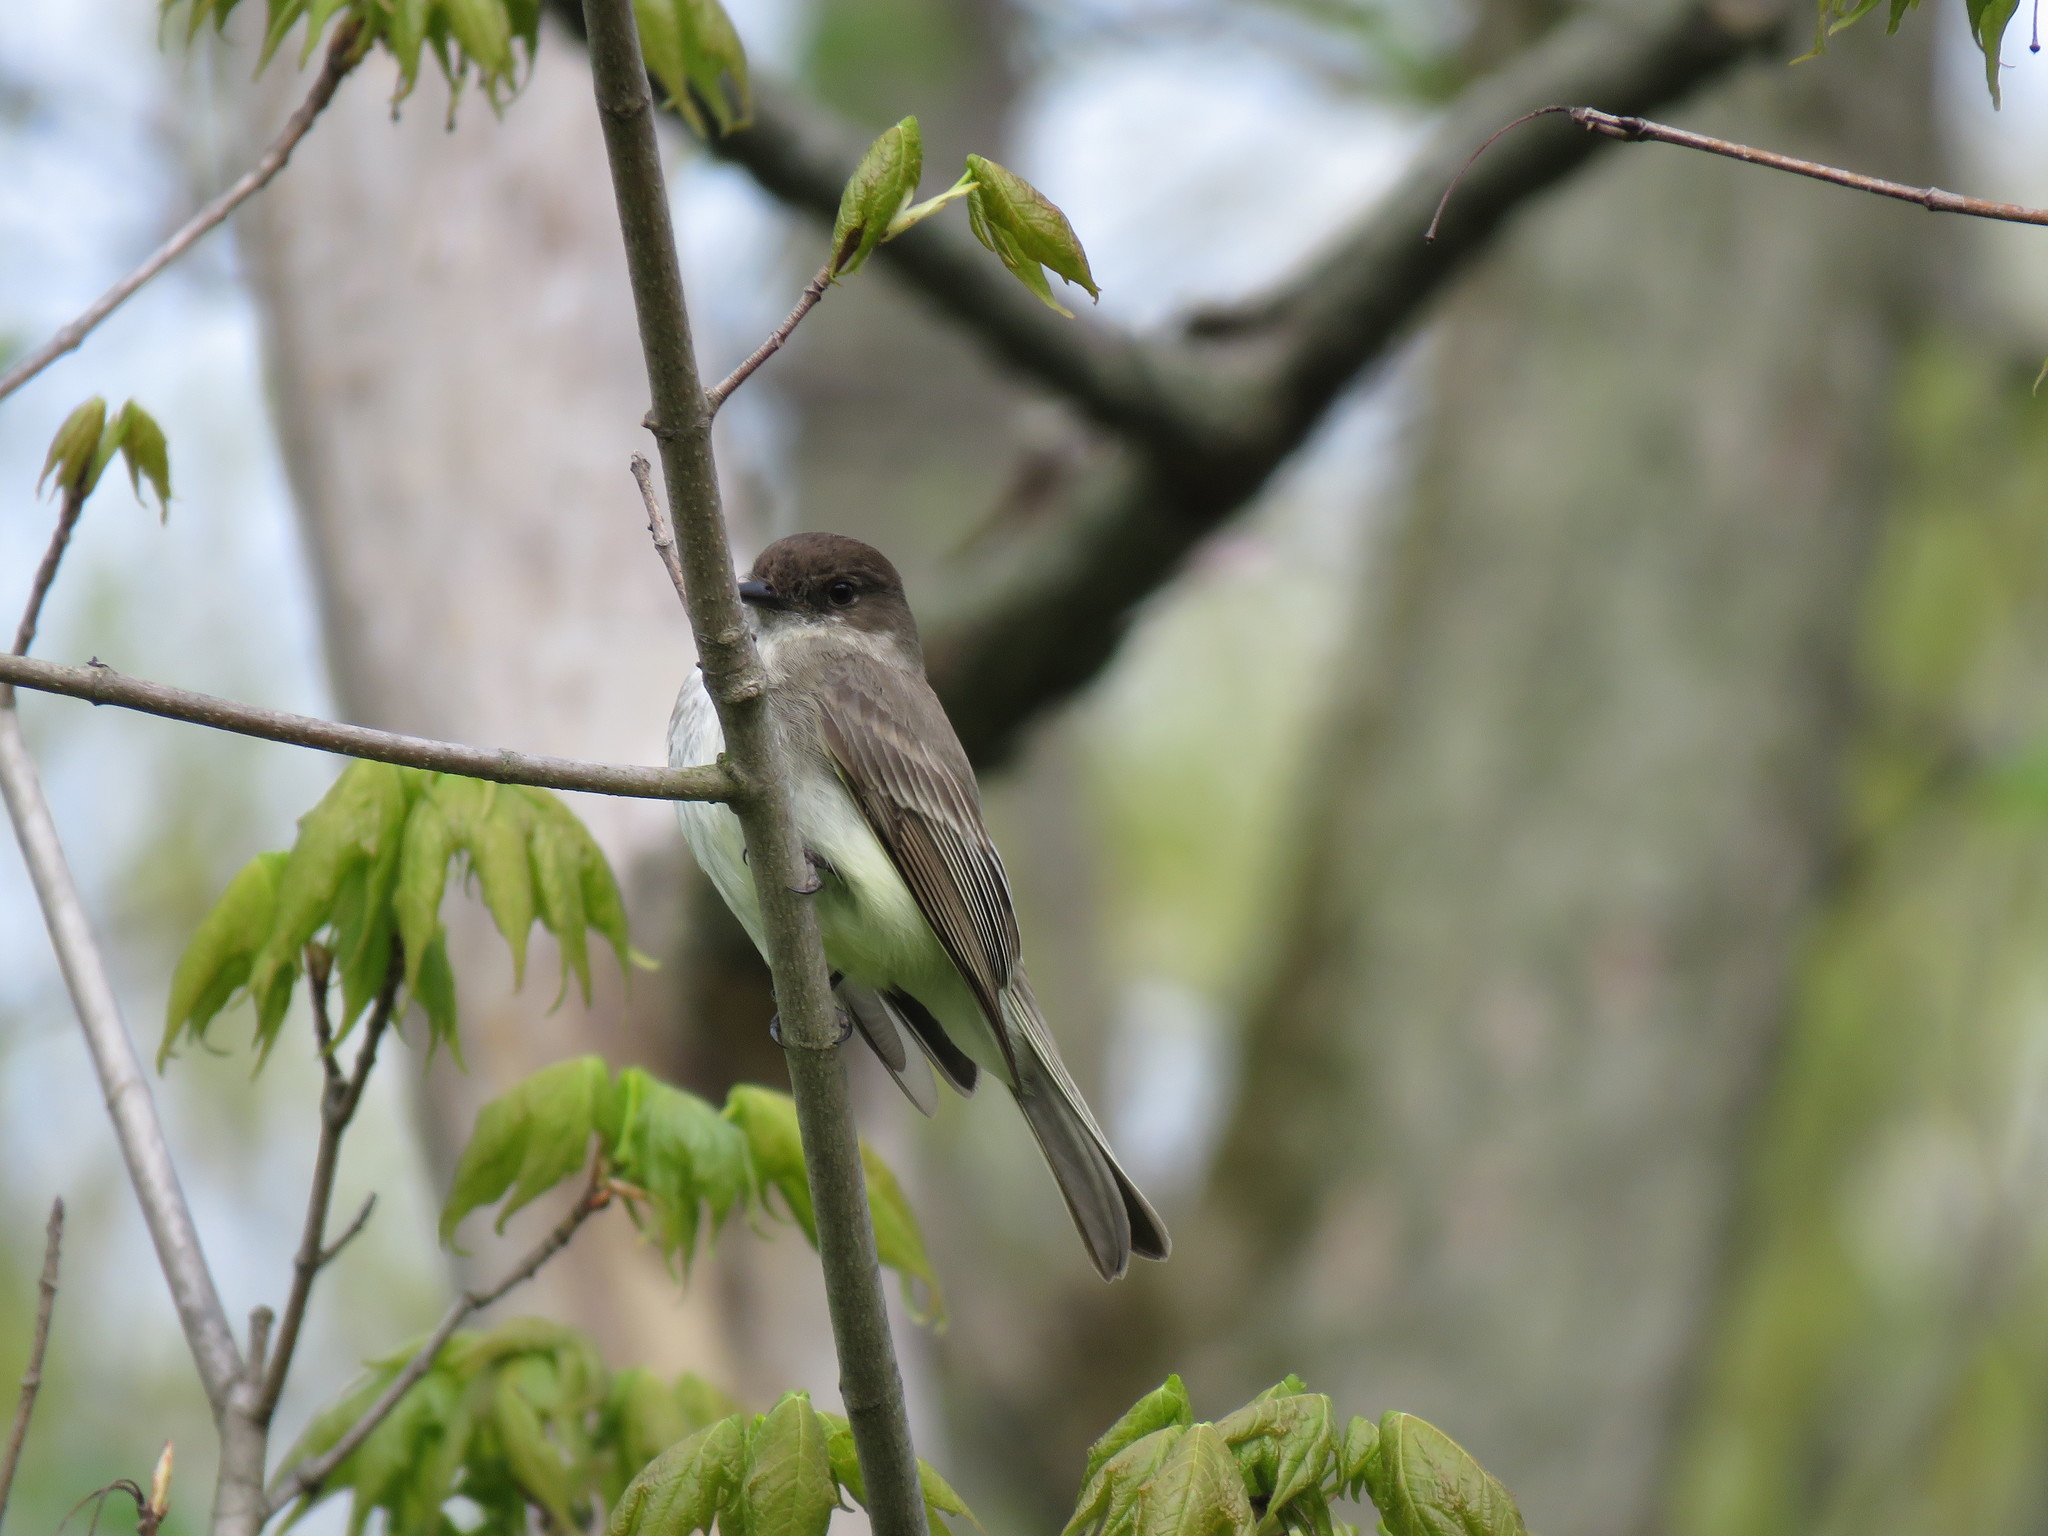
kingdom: Animalia
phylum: Chordata
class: Aves
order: Passeriformes
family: Tyrannidae
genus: Sayornis
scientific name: Sayornis phoebe
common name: Eastern phoebe
